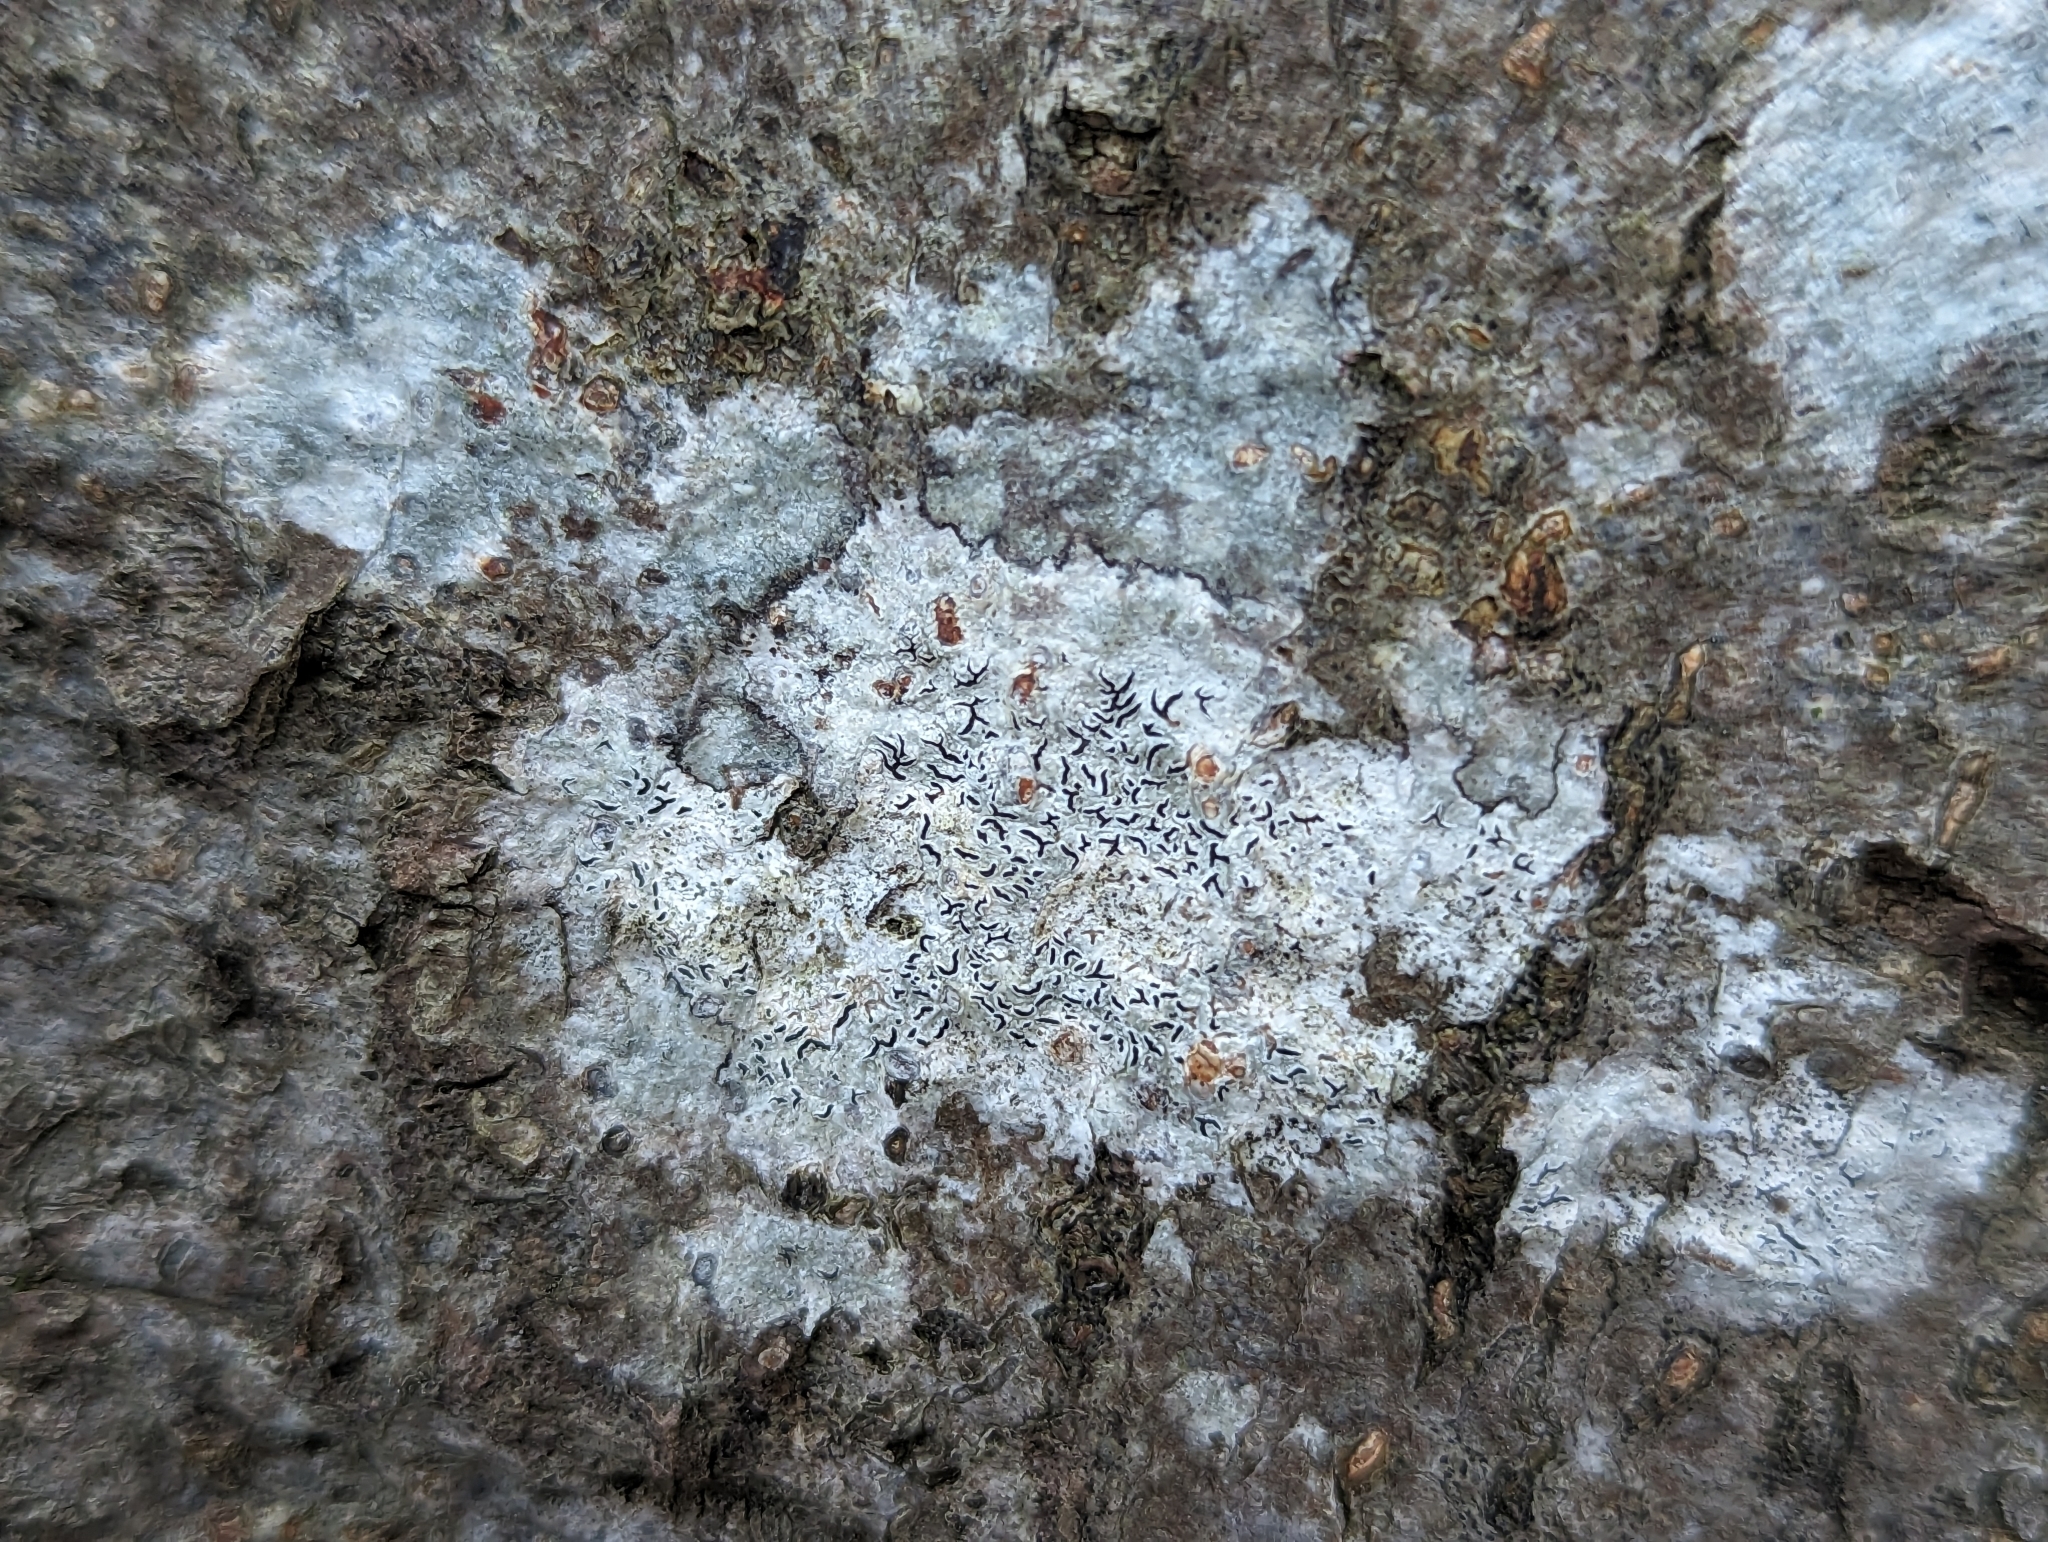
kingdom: Fungi
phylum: Ascomycota
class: Lecanoromycetes
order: Ostropales
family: Graphidaceae
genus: Graphis
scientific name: Graphis scripta
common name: Script lichen
